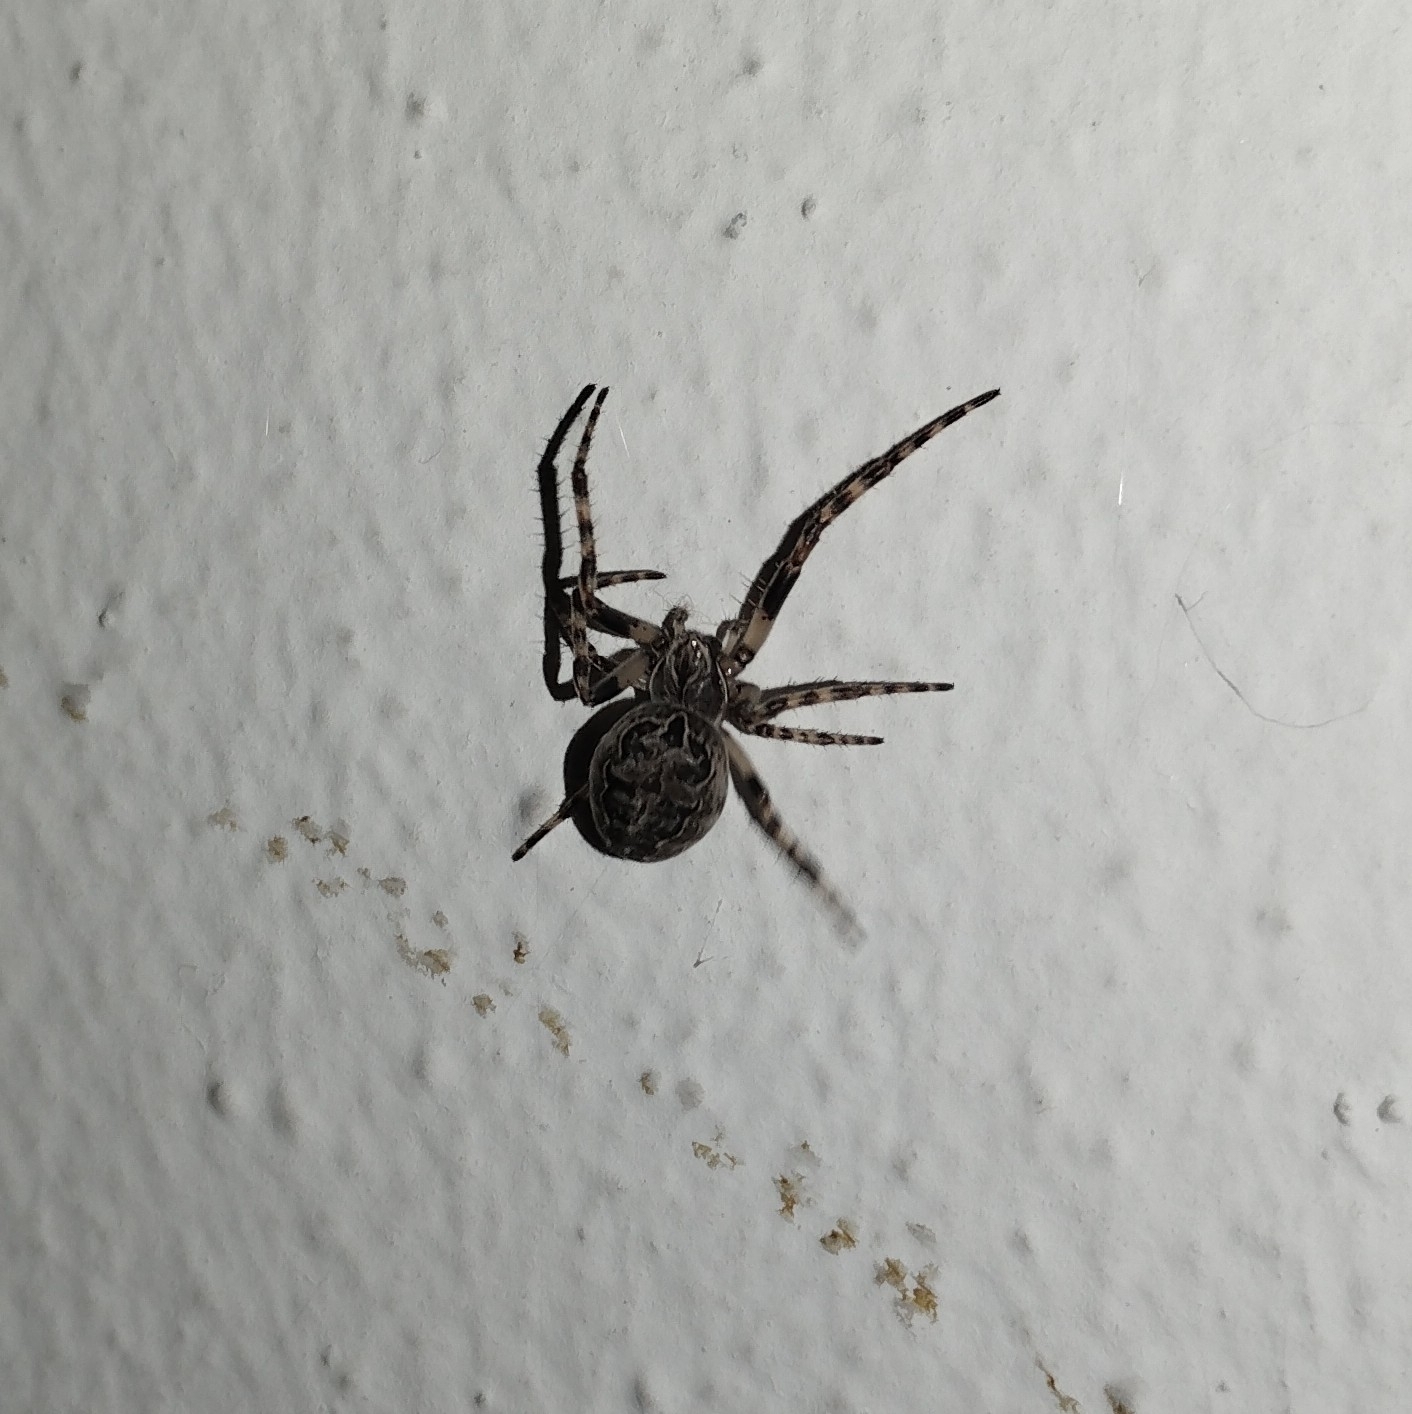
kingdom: Animalia
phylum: Arthropoda
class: Arachnida
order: Araneae
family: Araneidae
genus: Larinioides
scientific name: Larinioides sclopetarius
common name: Bridge orbweaver
